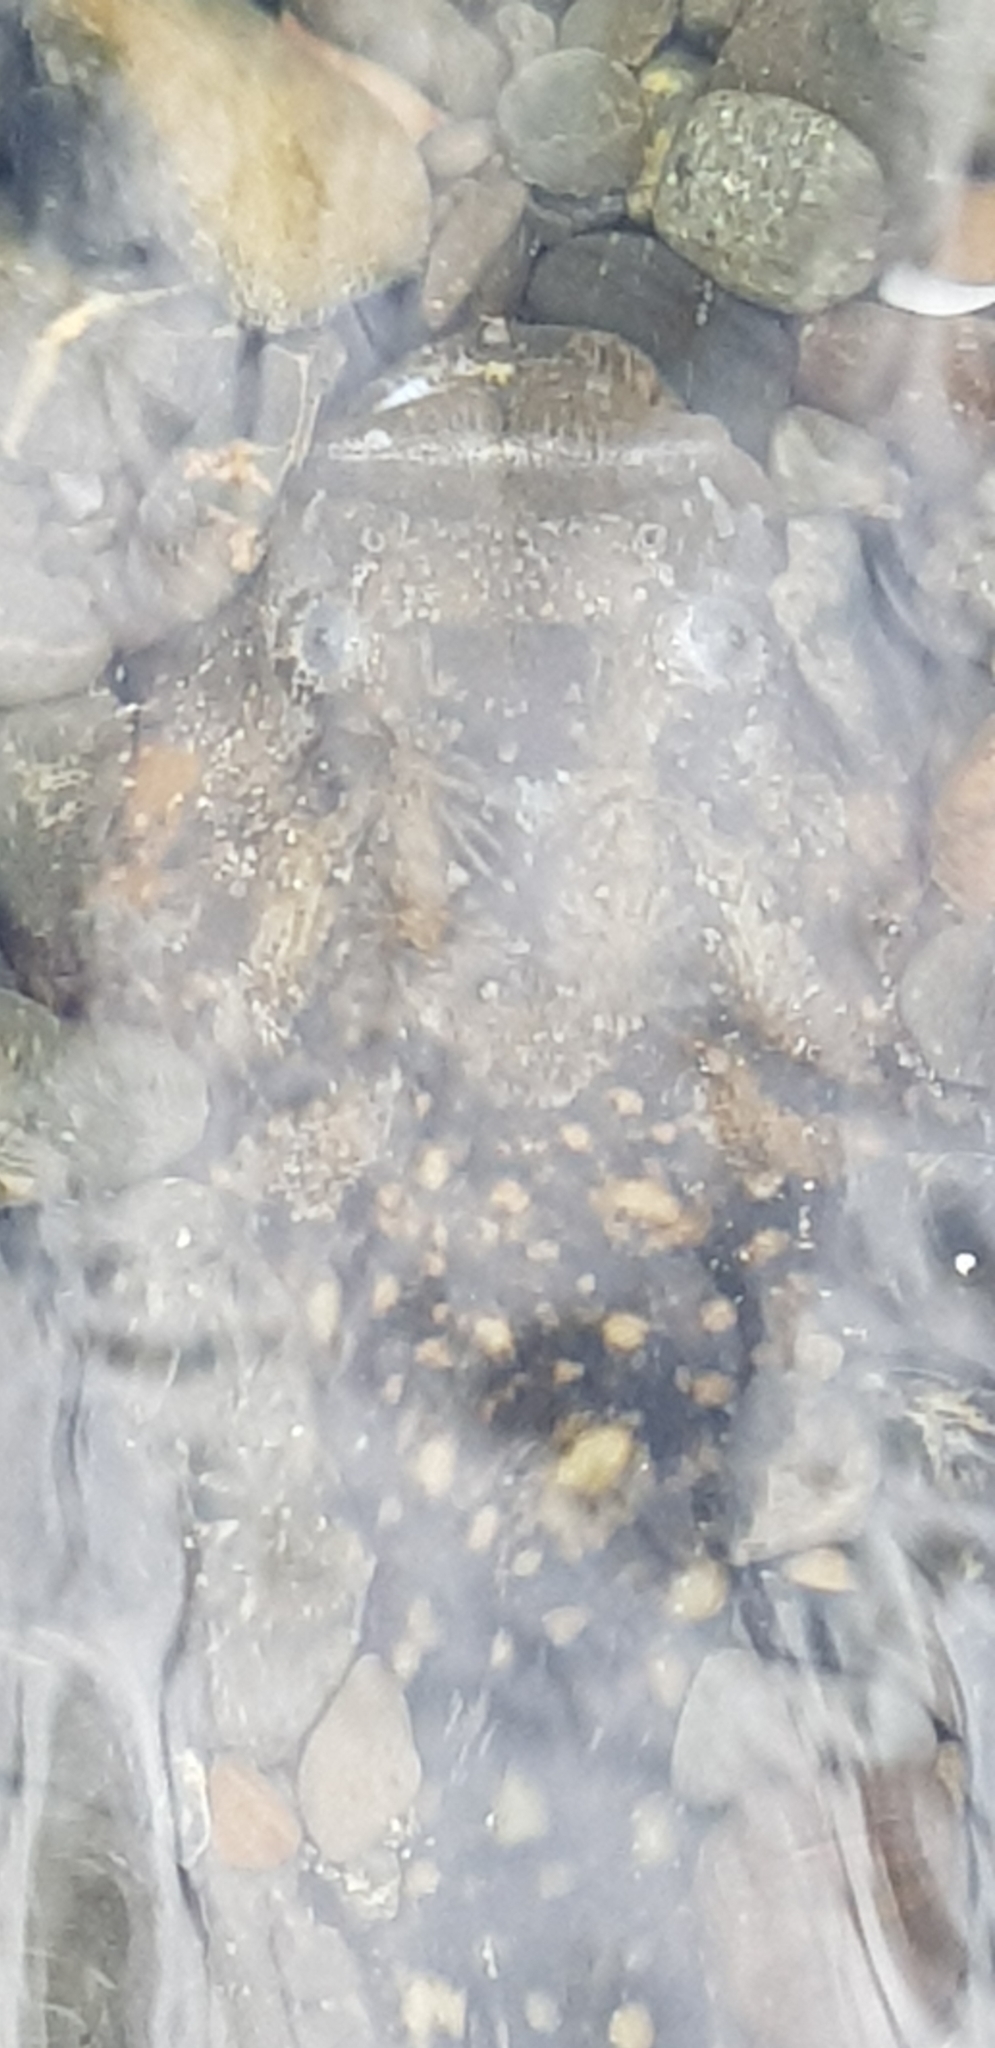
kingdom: Animalia
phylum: Chordata
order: Perciformes
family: Uranoscopidae
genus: Genyagnus
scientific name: Genyagnus monopterygius
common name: Spotted stargazer
